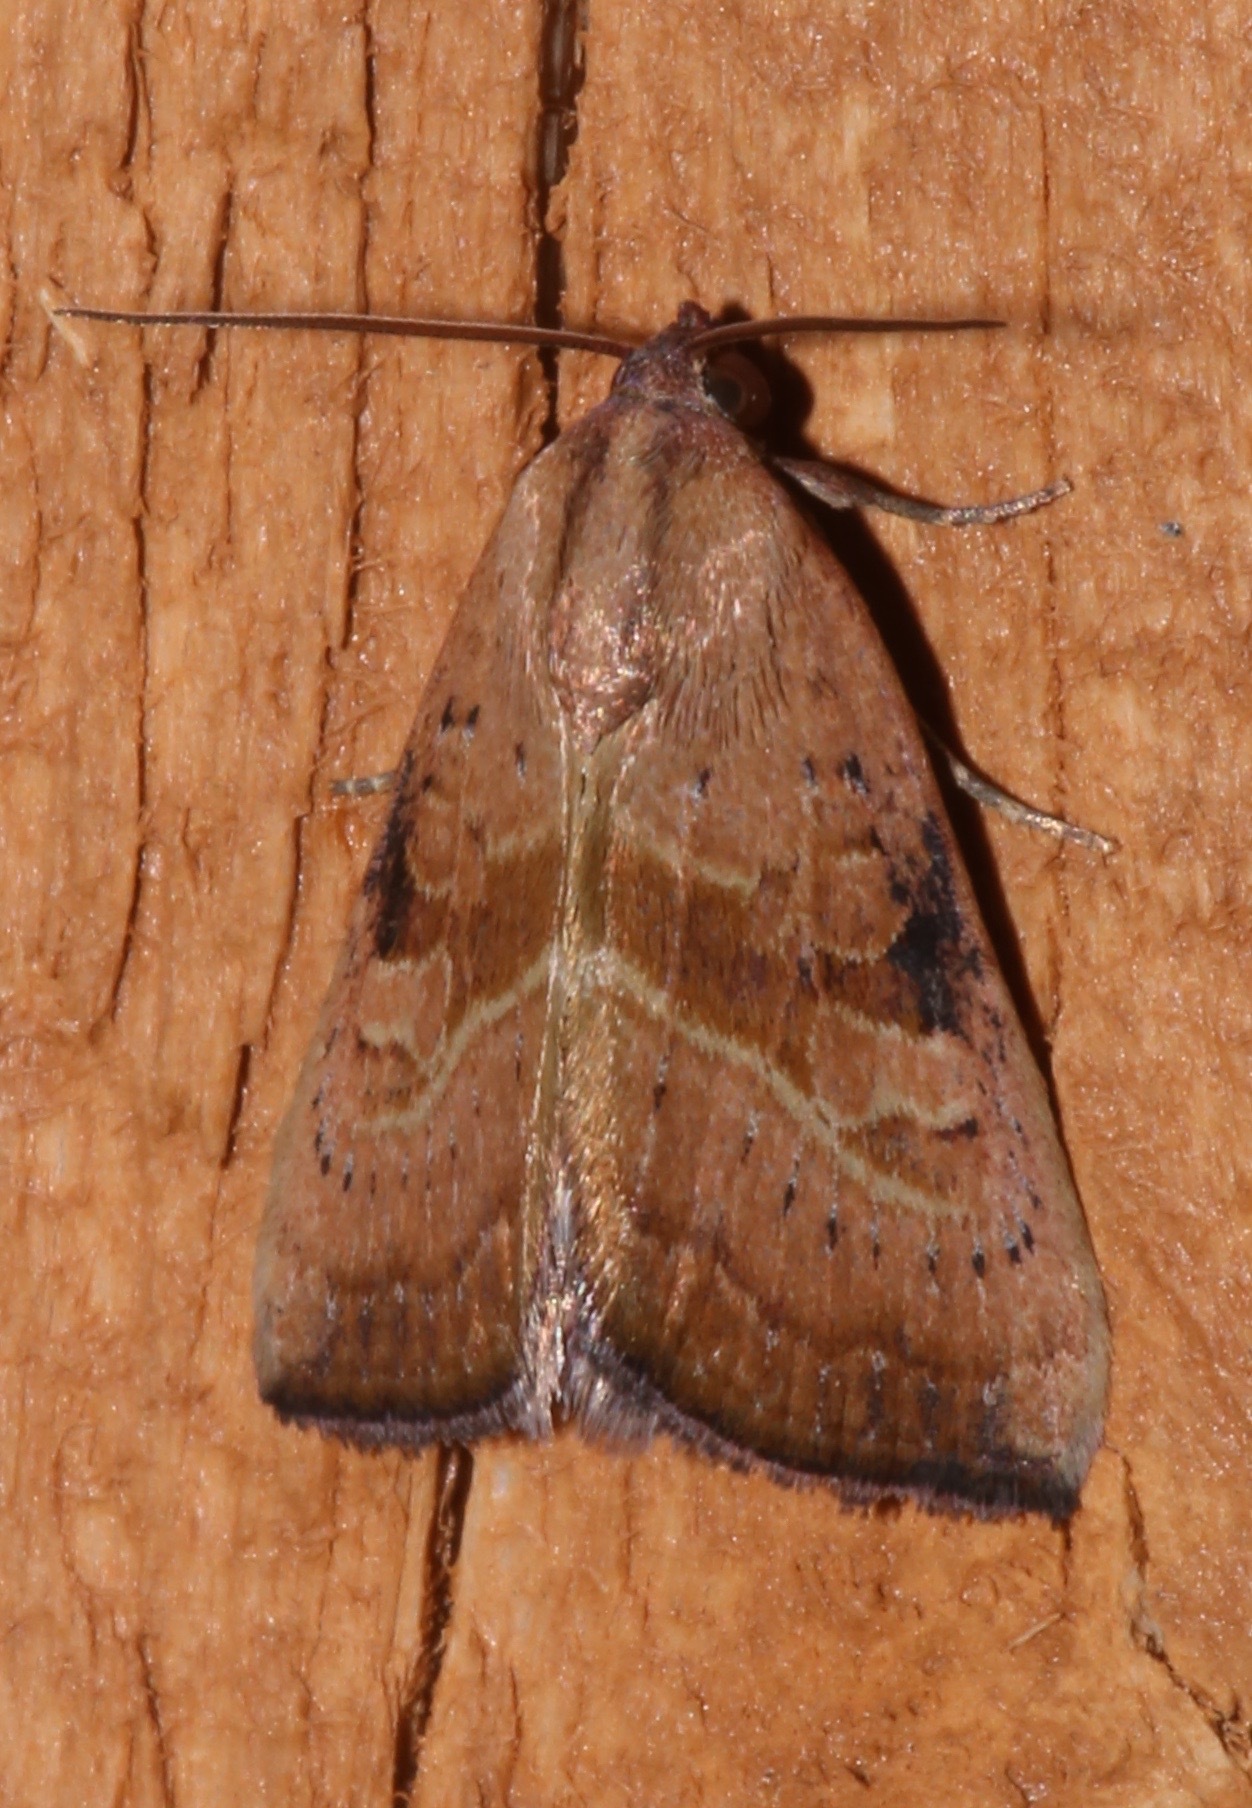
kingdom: Animalia
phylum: Arthropoda
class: Insecta
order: Lepidoptera
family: Noctuidae
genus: Galgula
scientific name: Galgula partita
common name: Wedgeling
